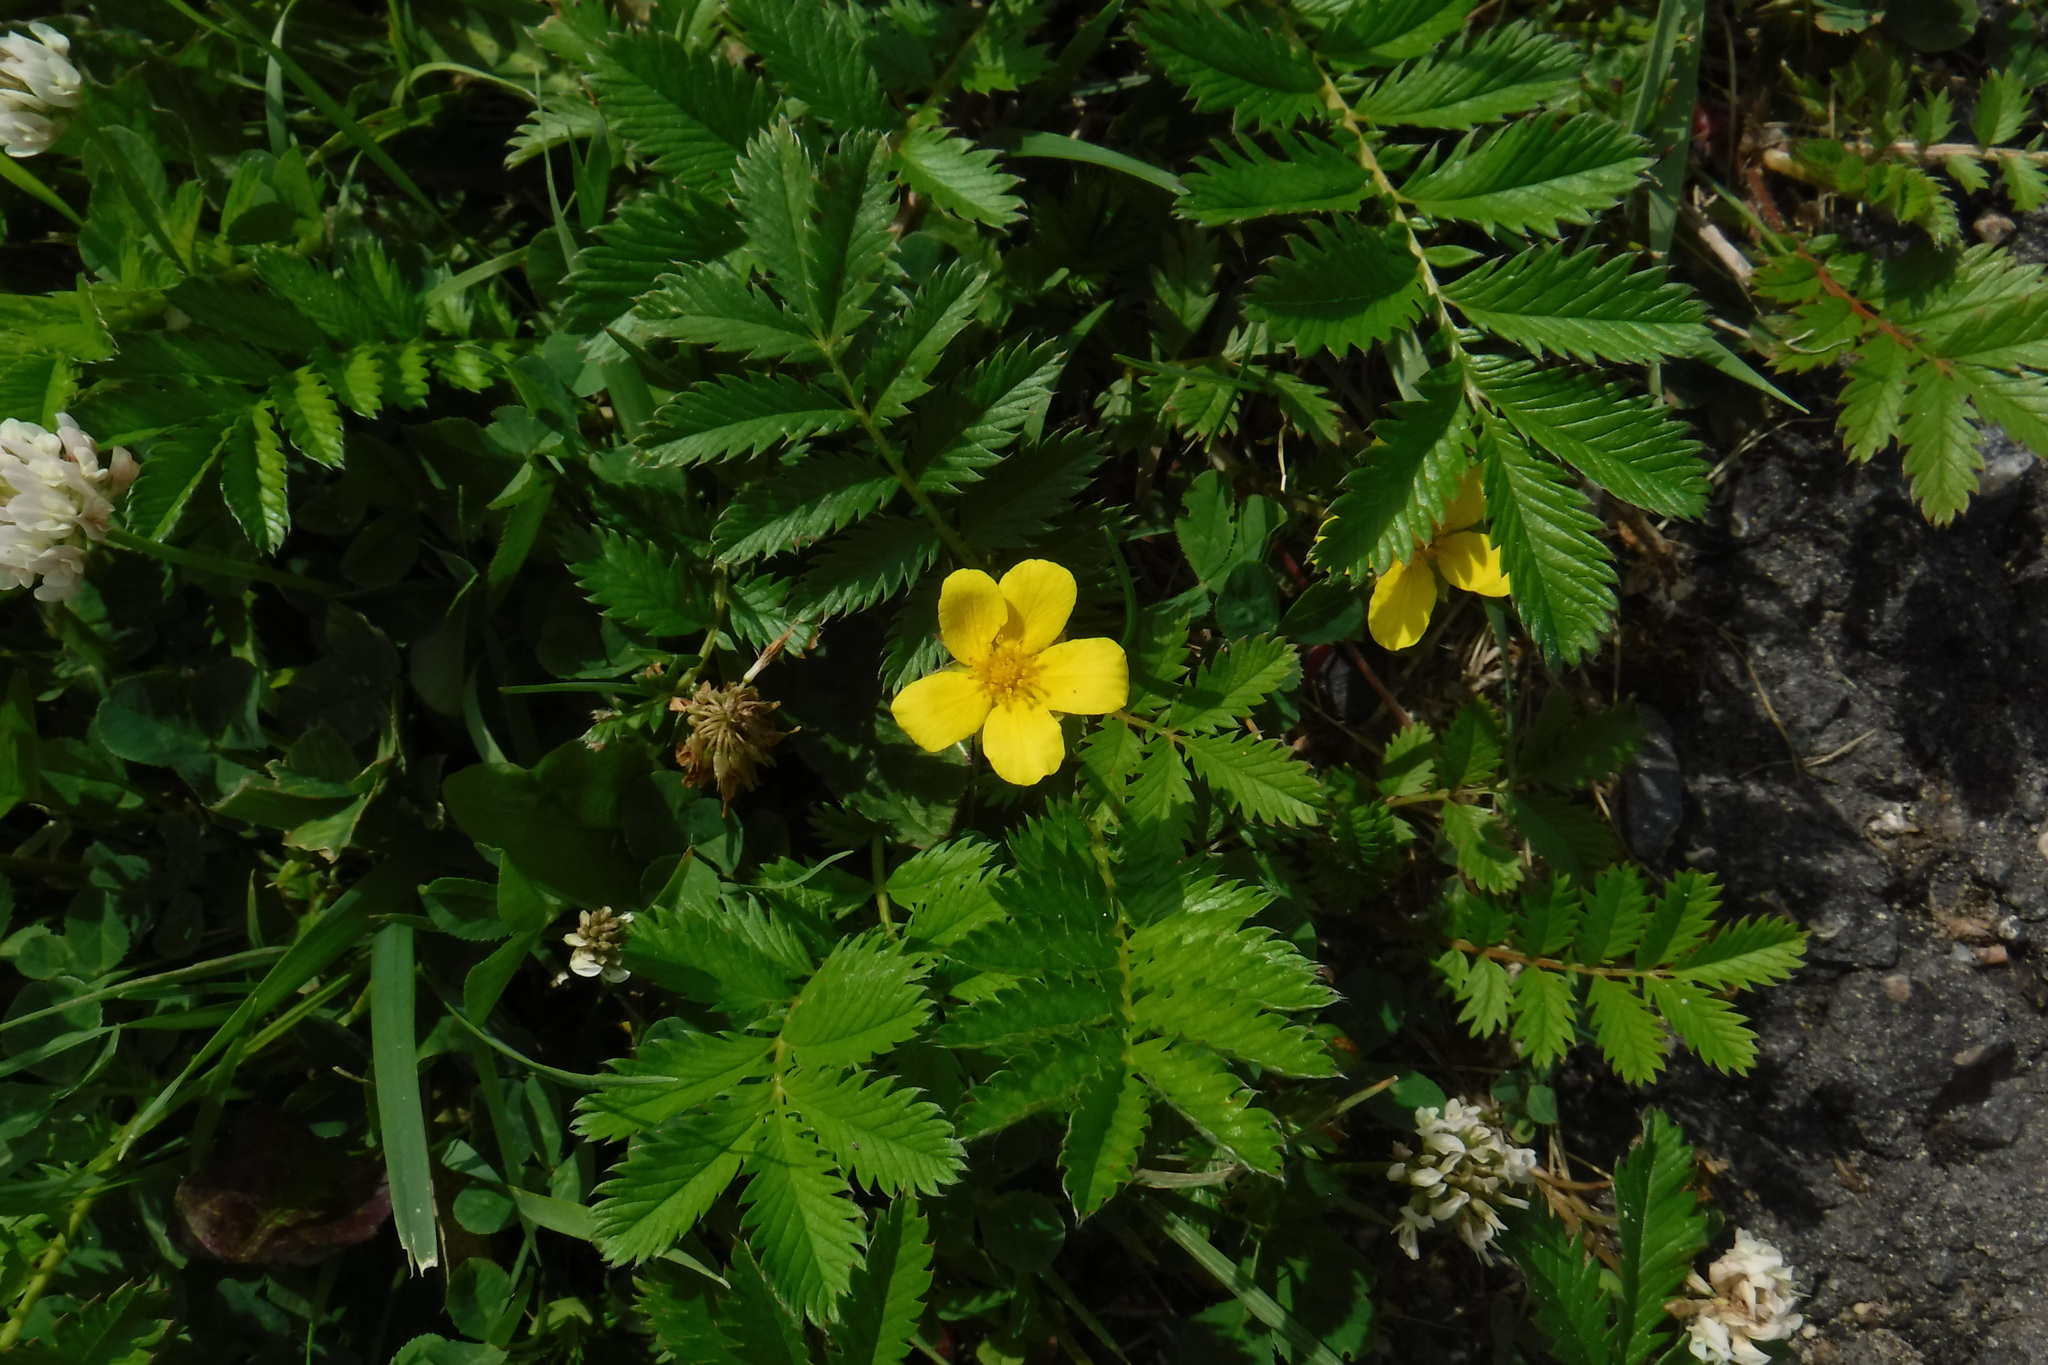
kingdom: Plantae
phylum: Tracheophyta
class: Magnoliopsida
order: Rosales
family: Rosaceae
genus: Argentina
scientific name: Argentina anserina
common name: Common silverweed
